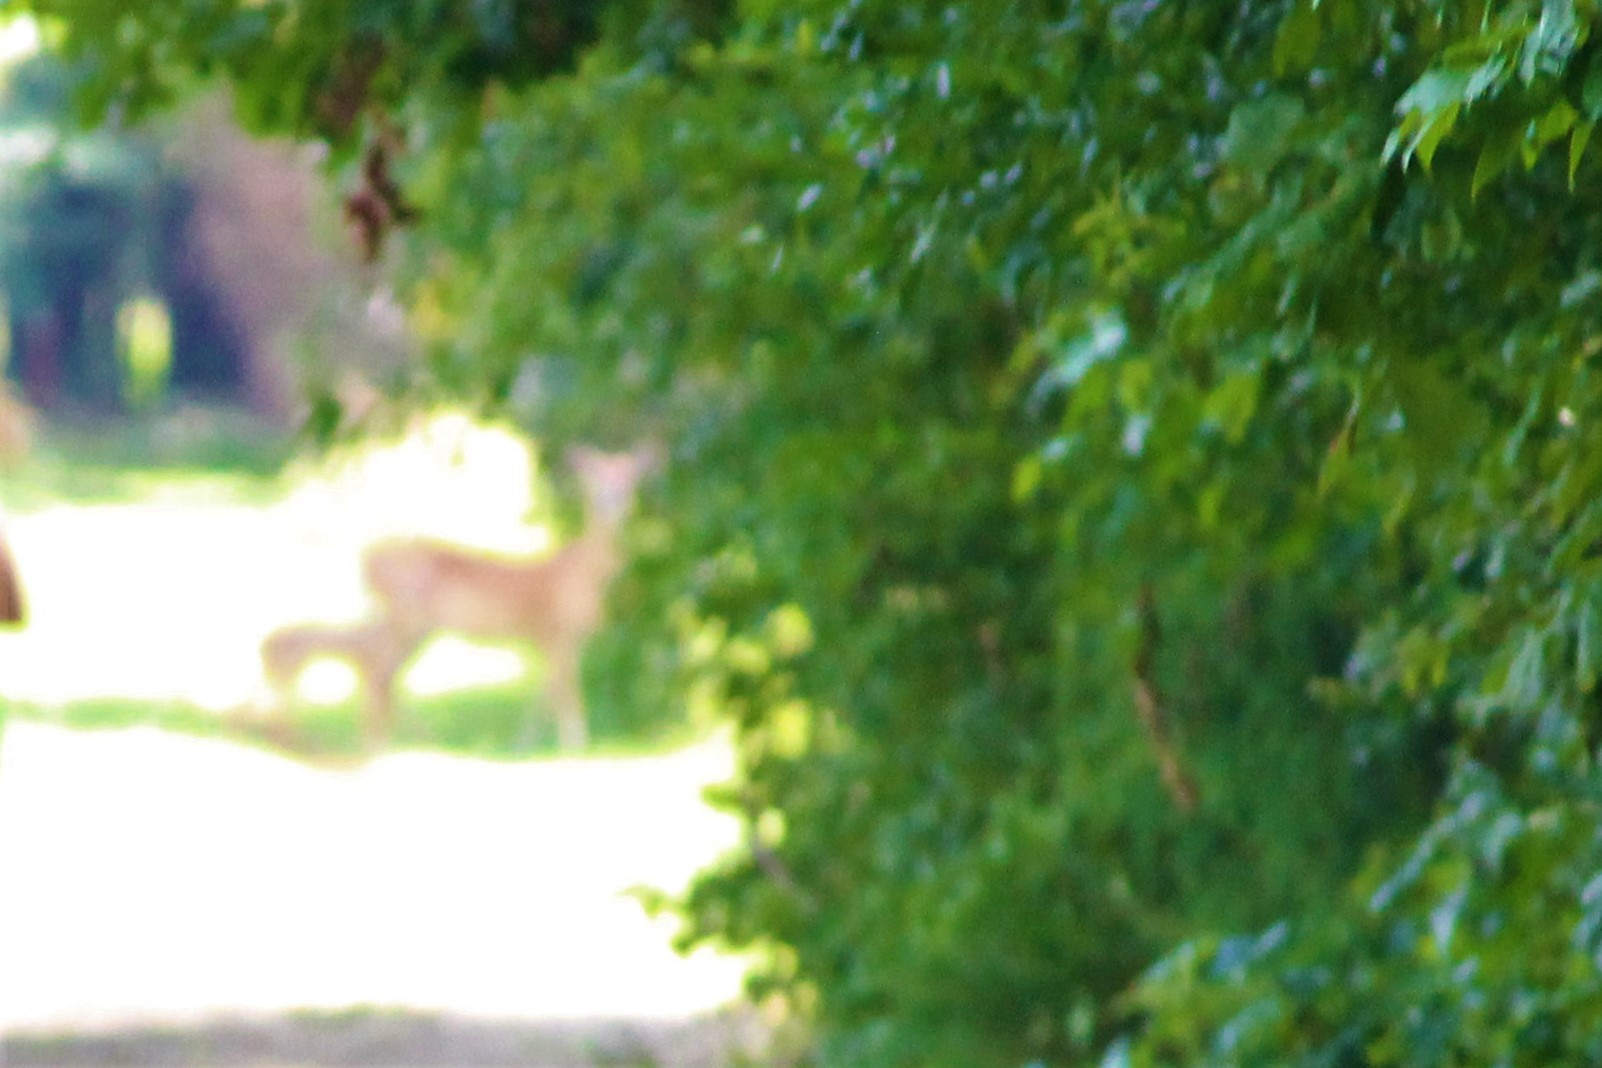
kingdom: Animalia
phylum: Chordata
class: Mammalia
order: Artiodactyla
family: Cervidae
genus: Odocoileus
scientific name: Odocoileus virginianus
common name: White-tailed deer
